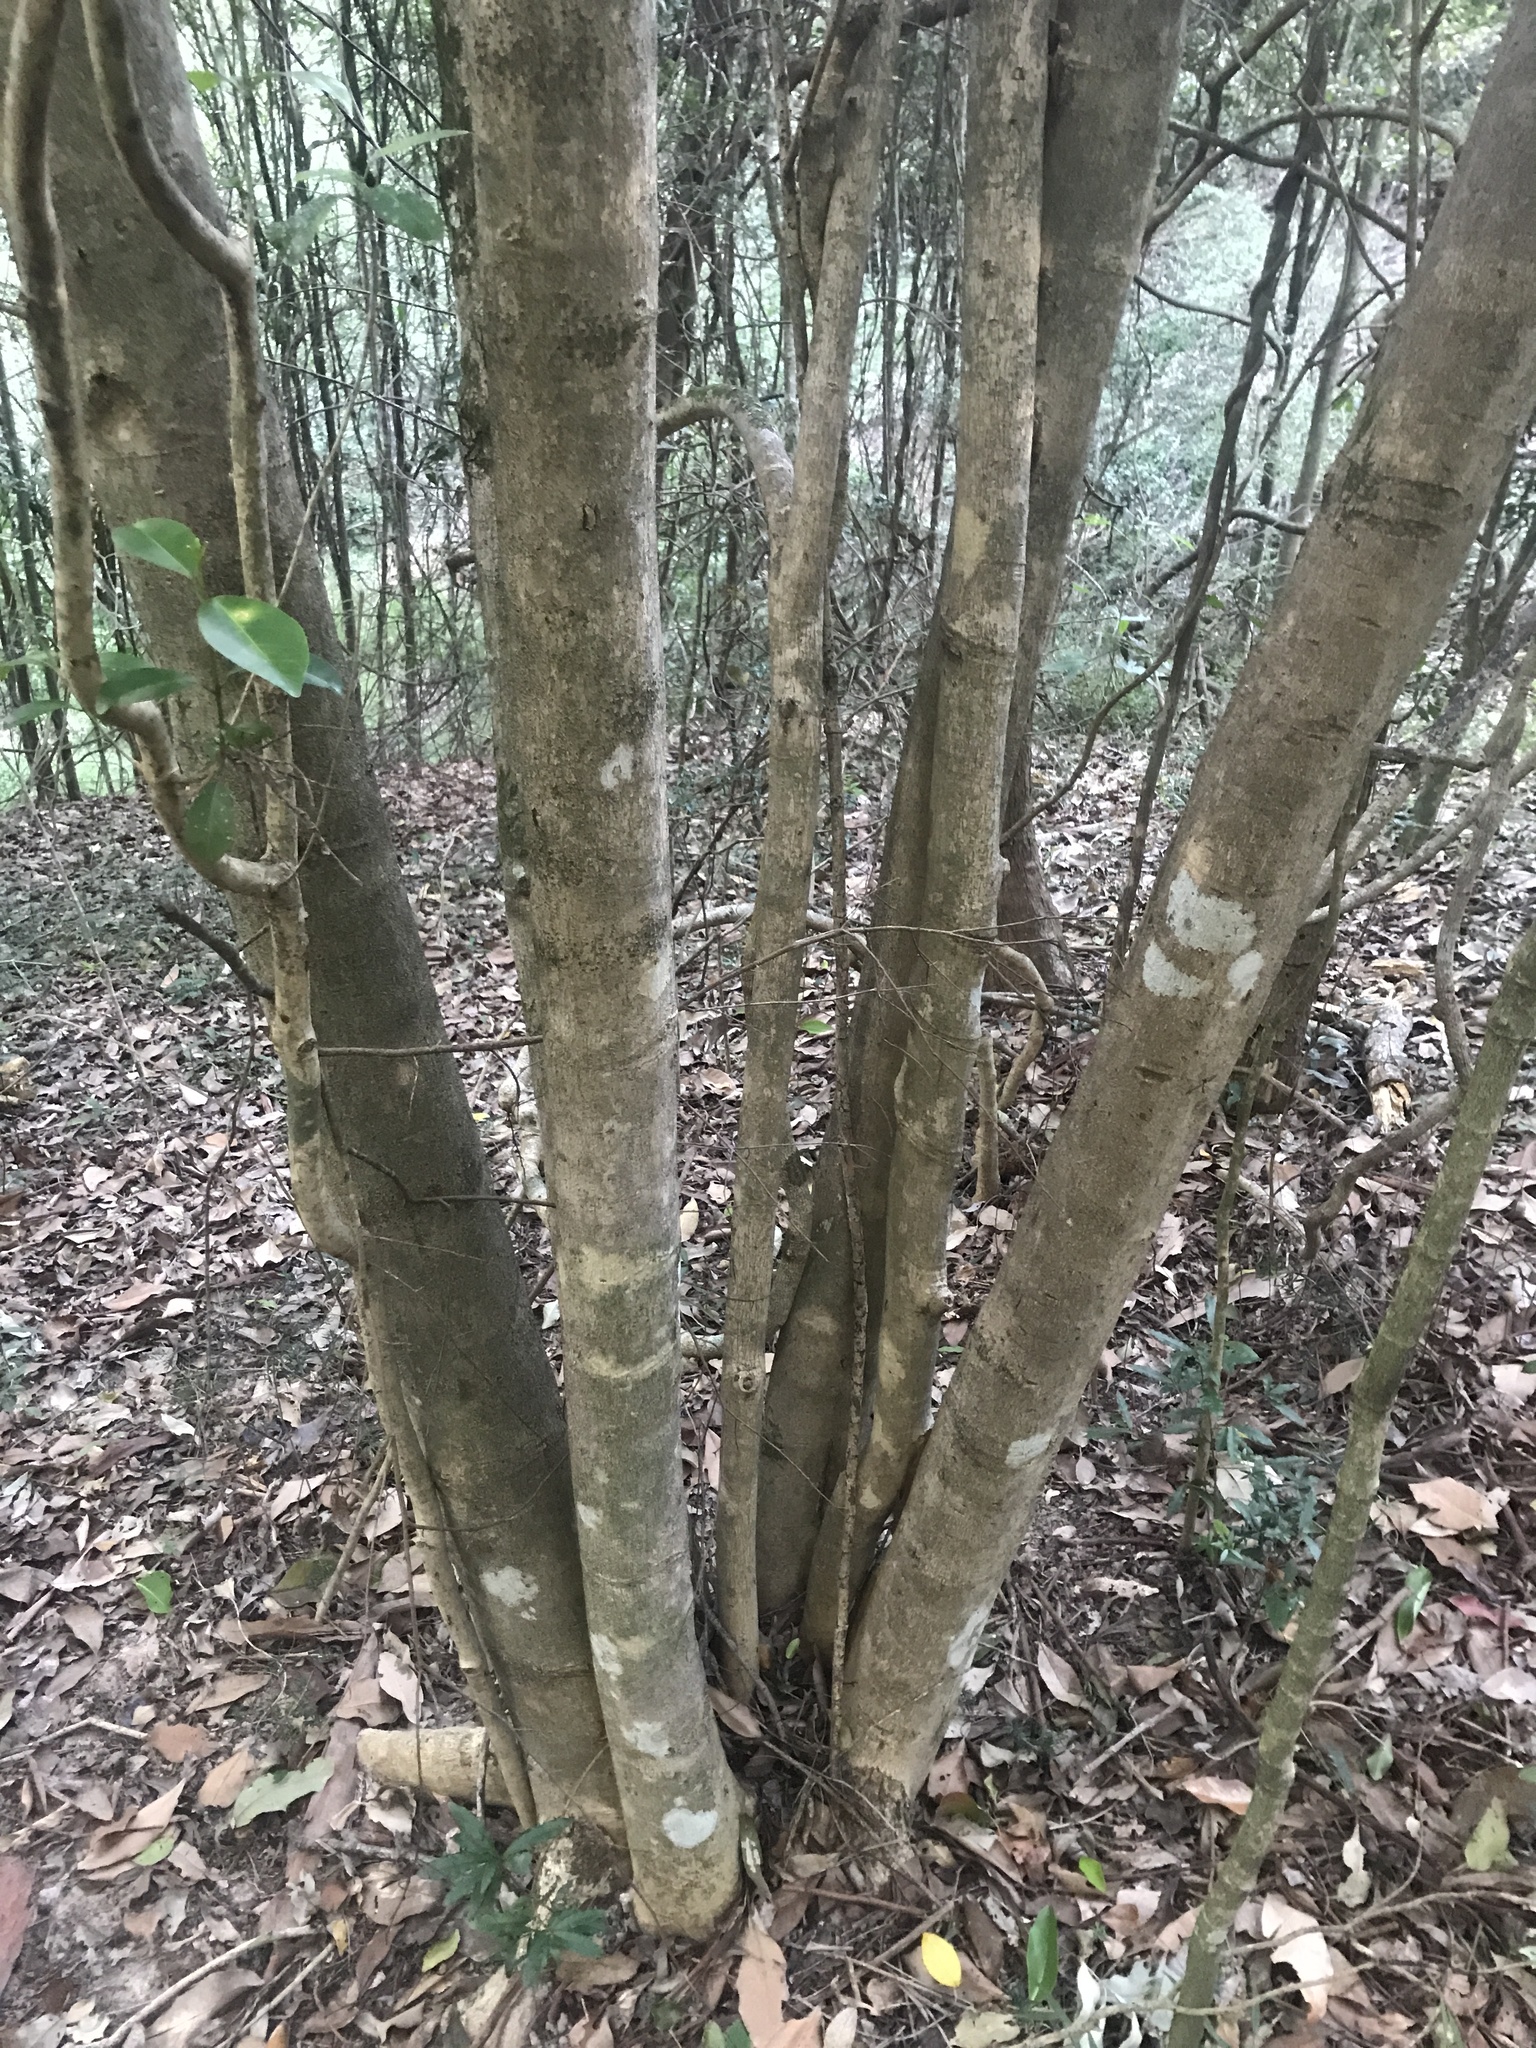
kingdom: Plantae
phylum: Tracheophyta
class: Magnoliopsida
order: Sapindales
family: Rutaceae
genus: Acronychia
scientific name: Acronychia laevis
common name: Hard aspen
